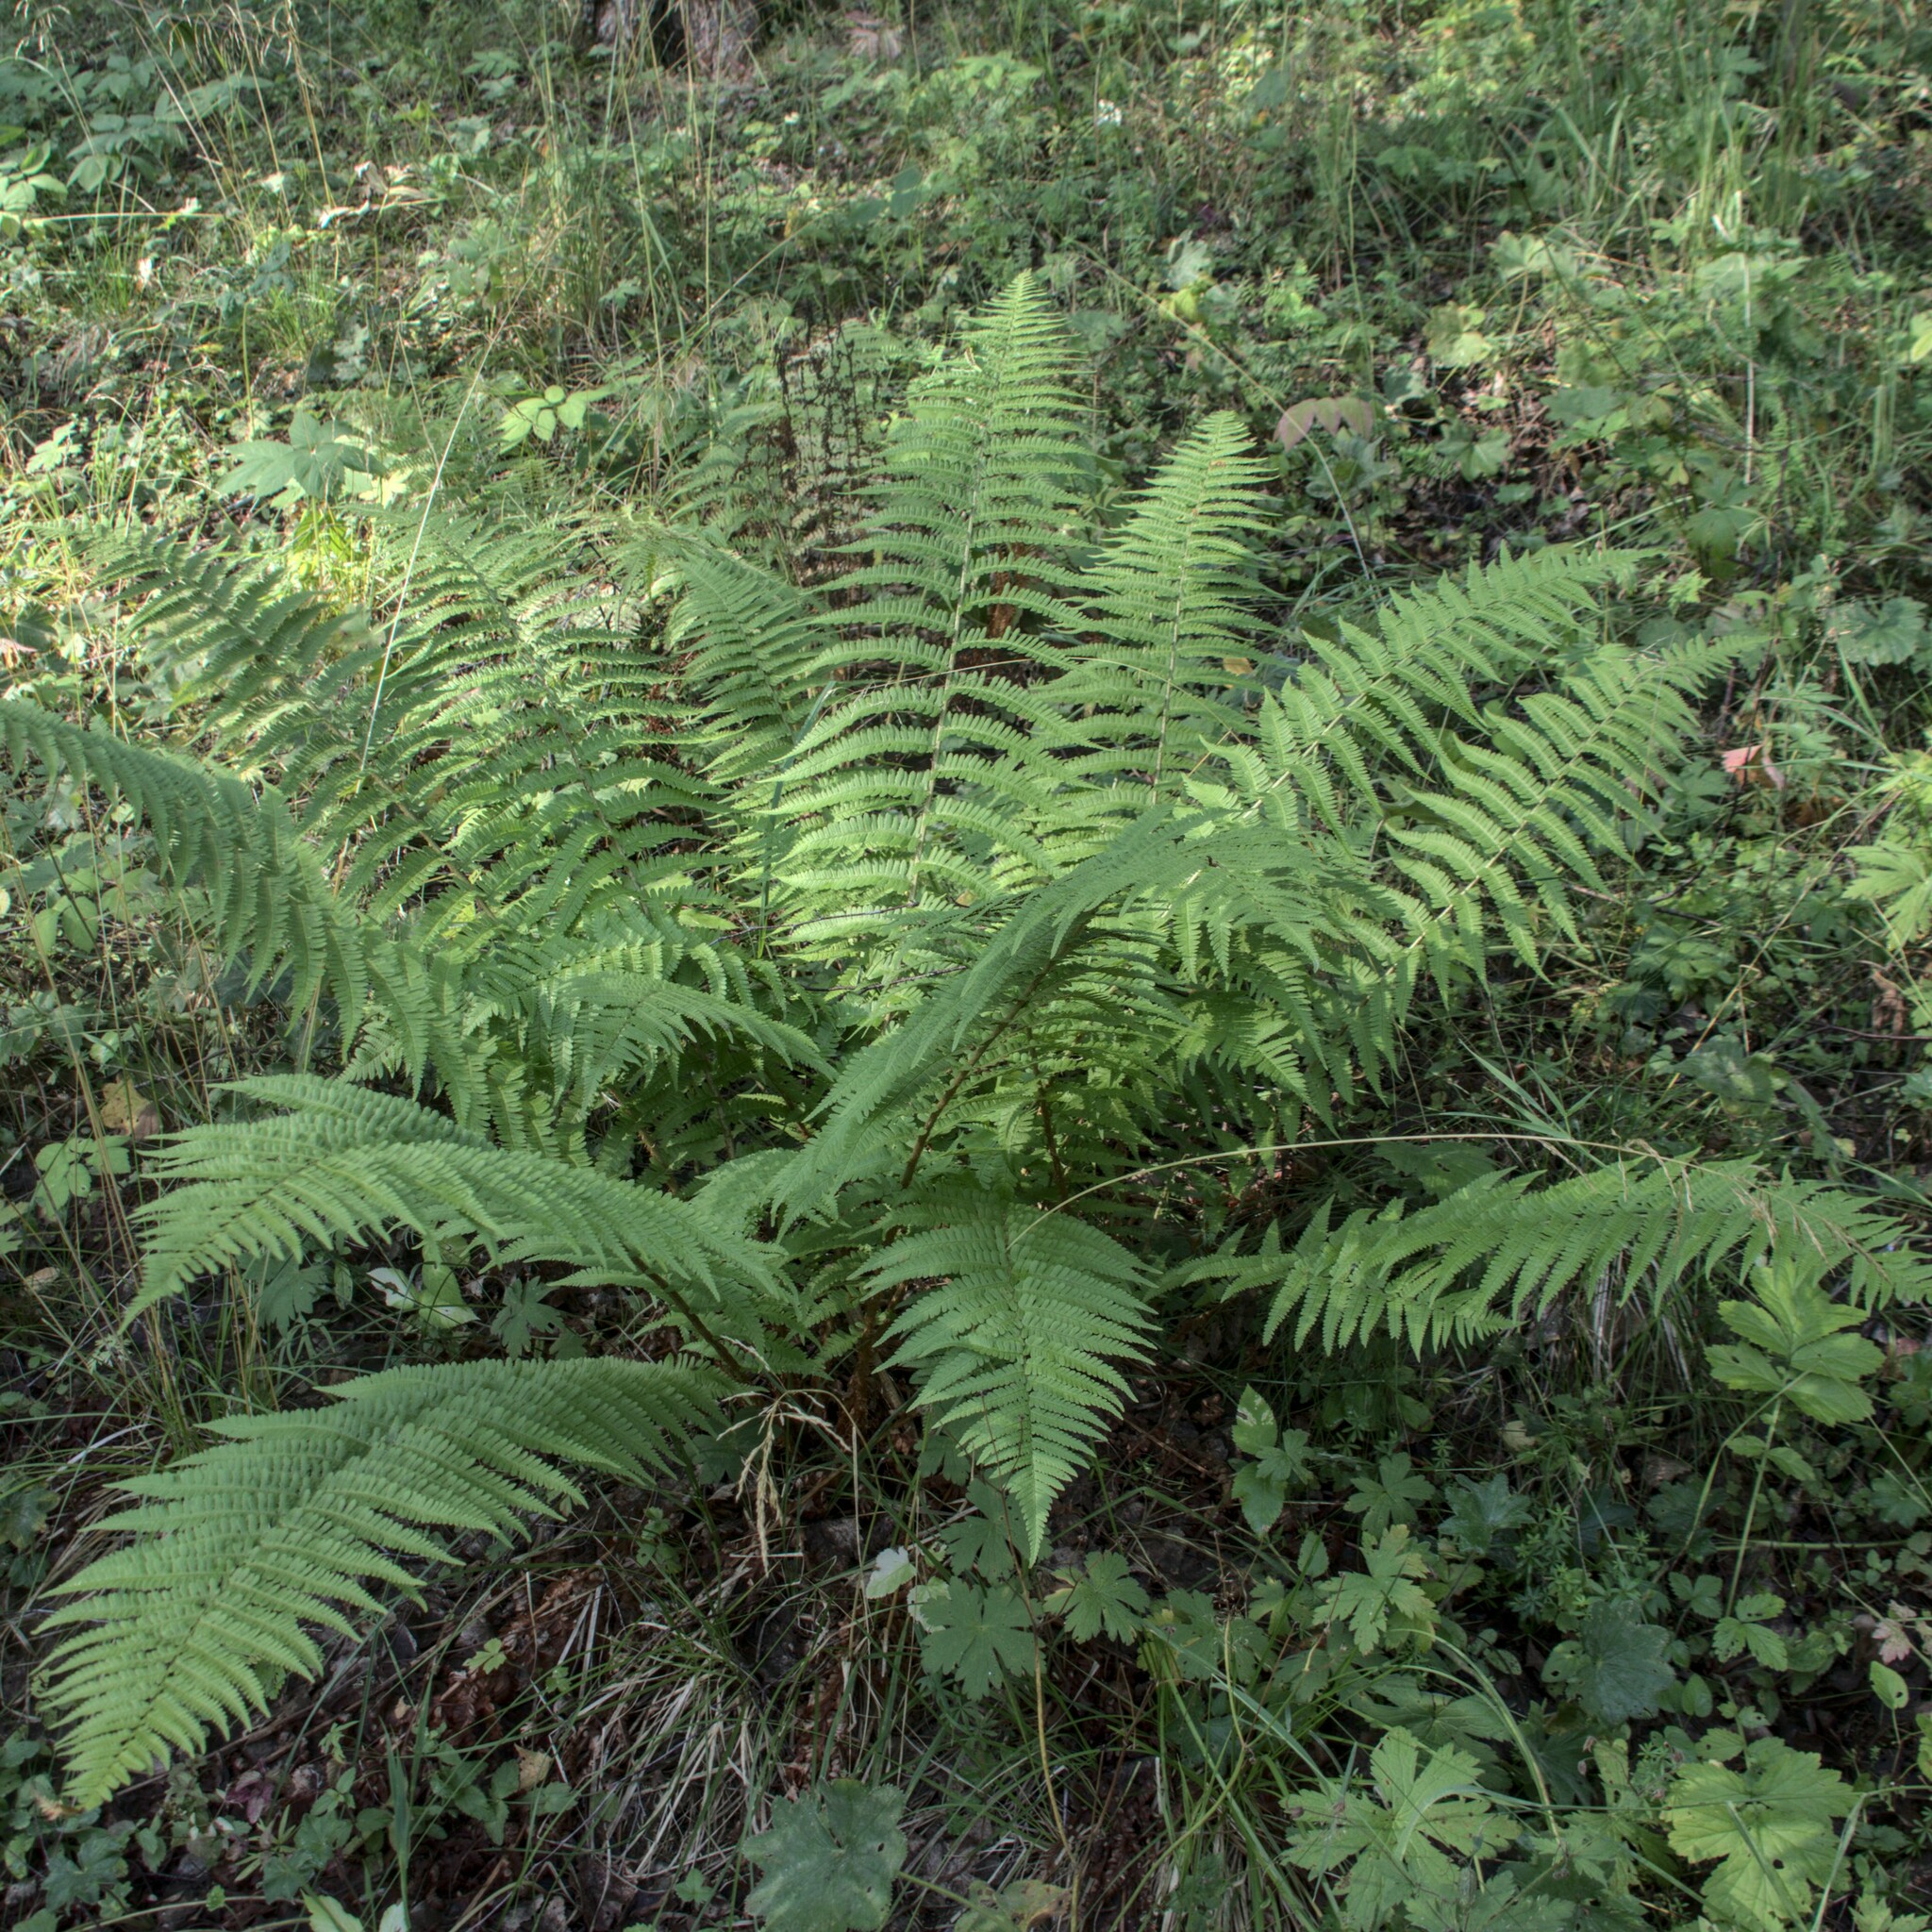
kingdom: Plantae
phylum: Tracheophyta
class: Polypodiopsida
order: Polypodiales
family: Dryopteridaceae
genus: Dryopteris
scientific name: Dryopteris filix-mas
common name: Male fern
